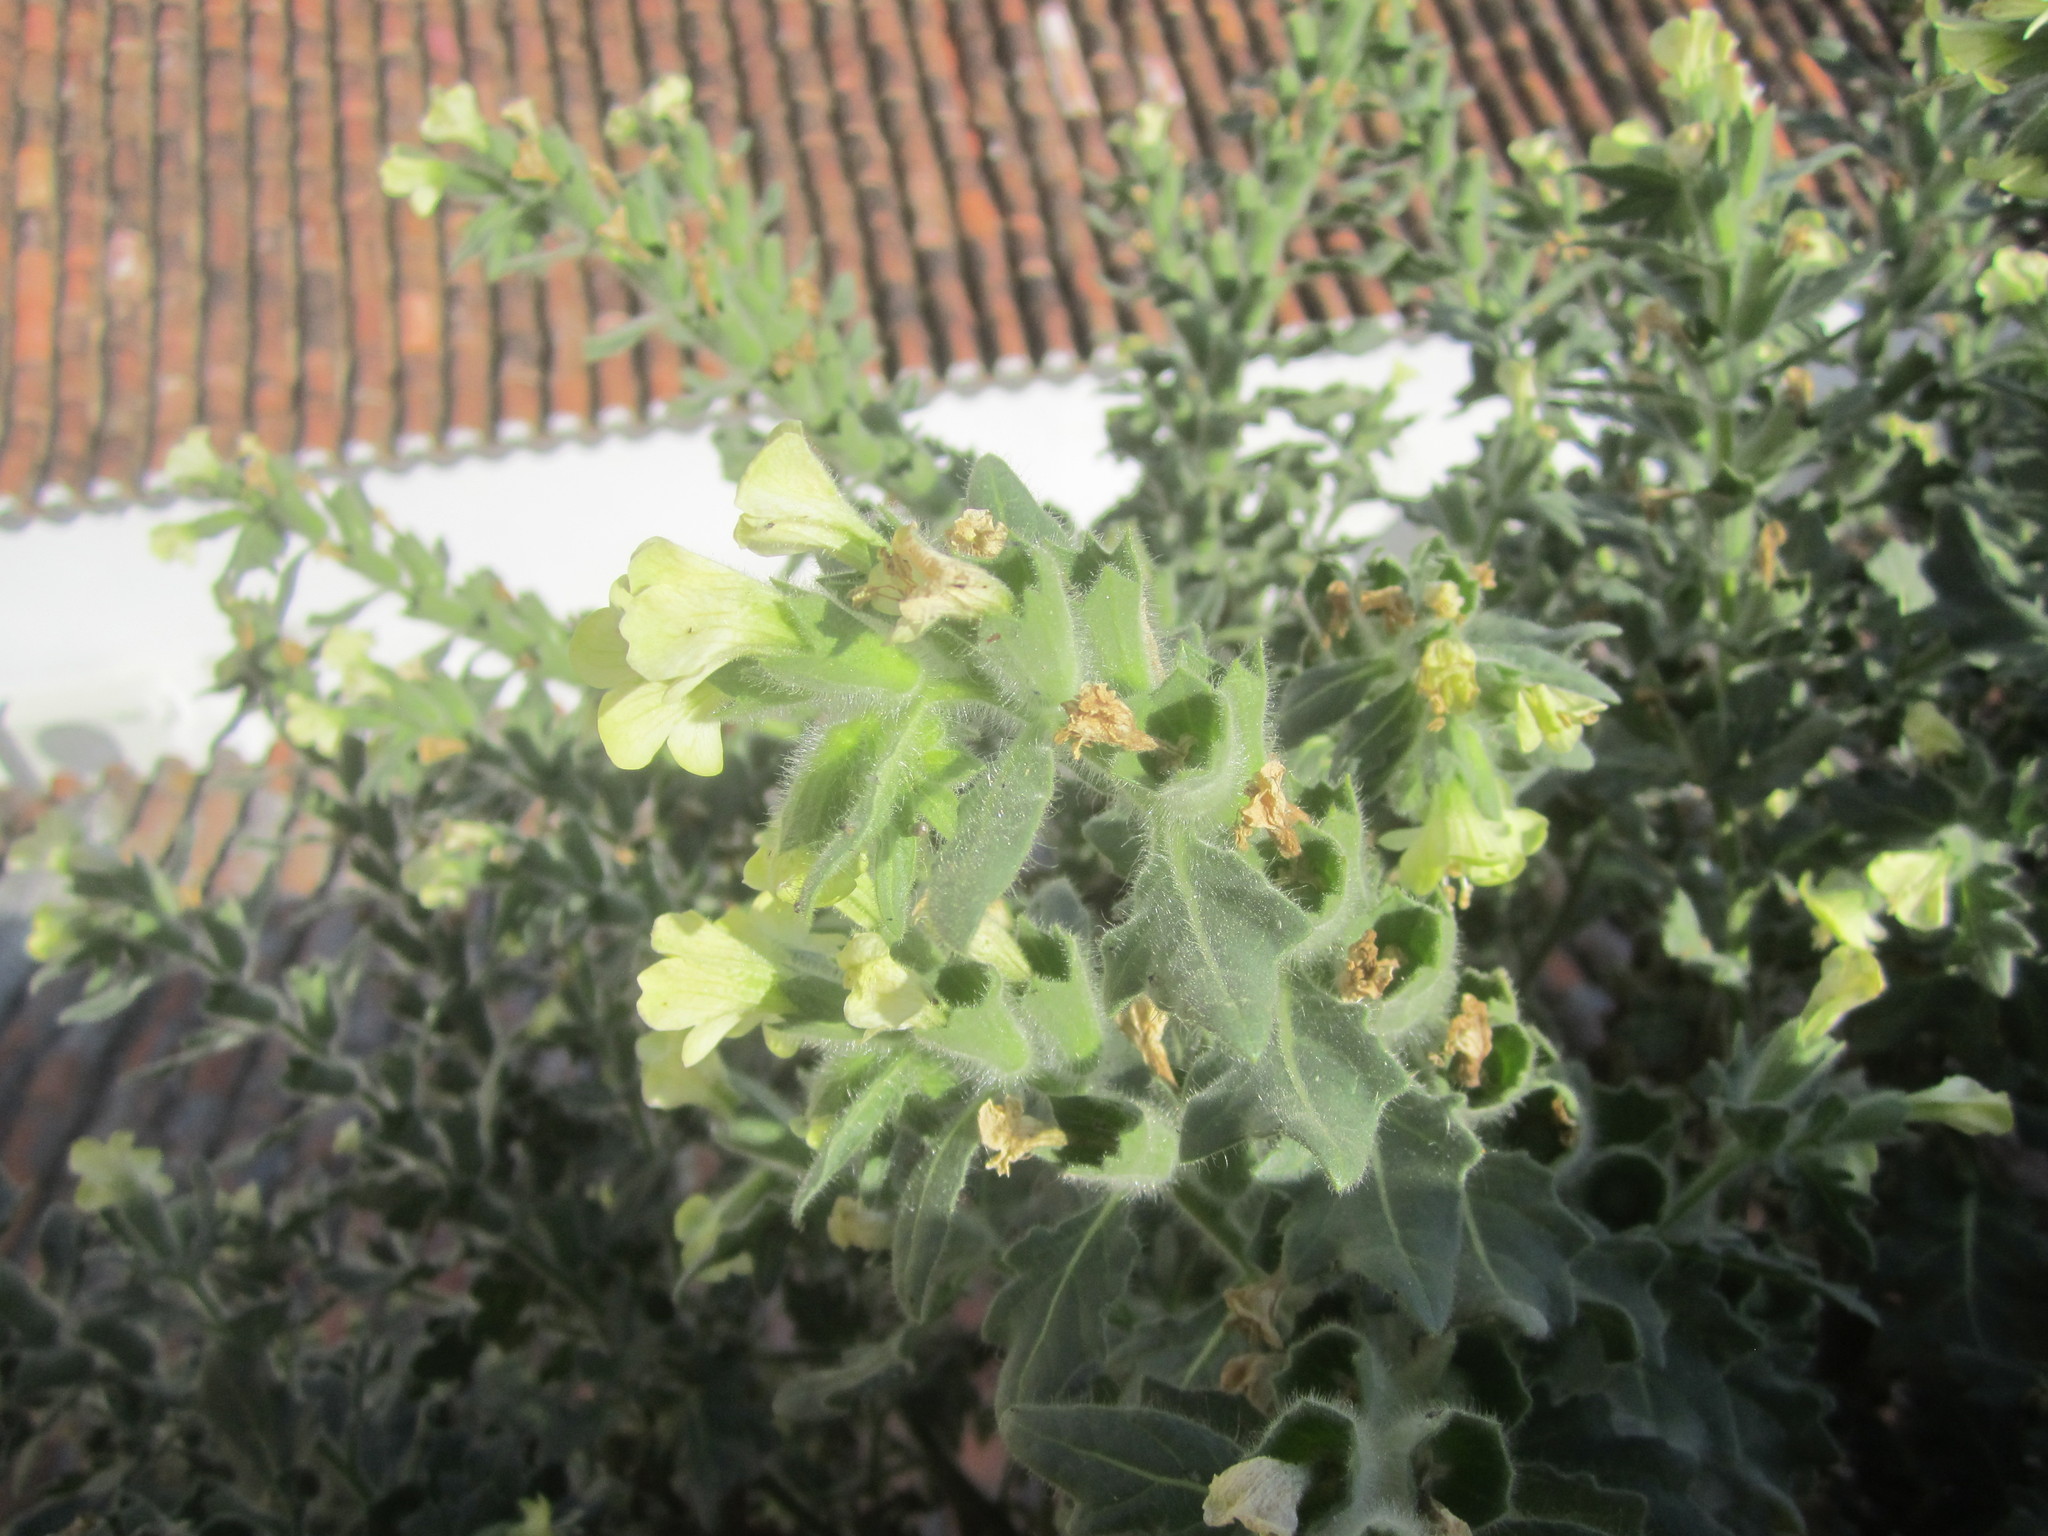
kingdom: Plantae
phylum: Tracheophyta
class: Magnoliopsida
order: Solanales
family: Solanaceae
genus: Hyoscyamus
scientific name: Hyoscyamus albus
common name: White henbane
